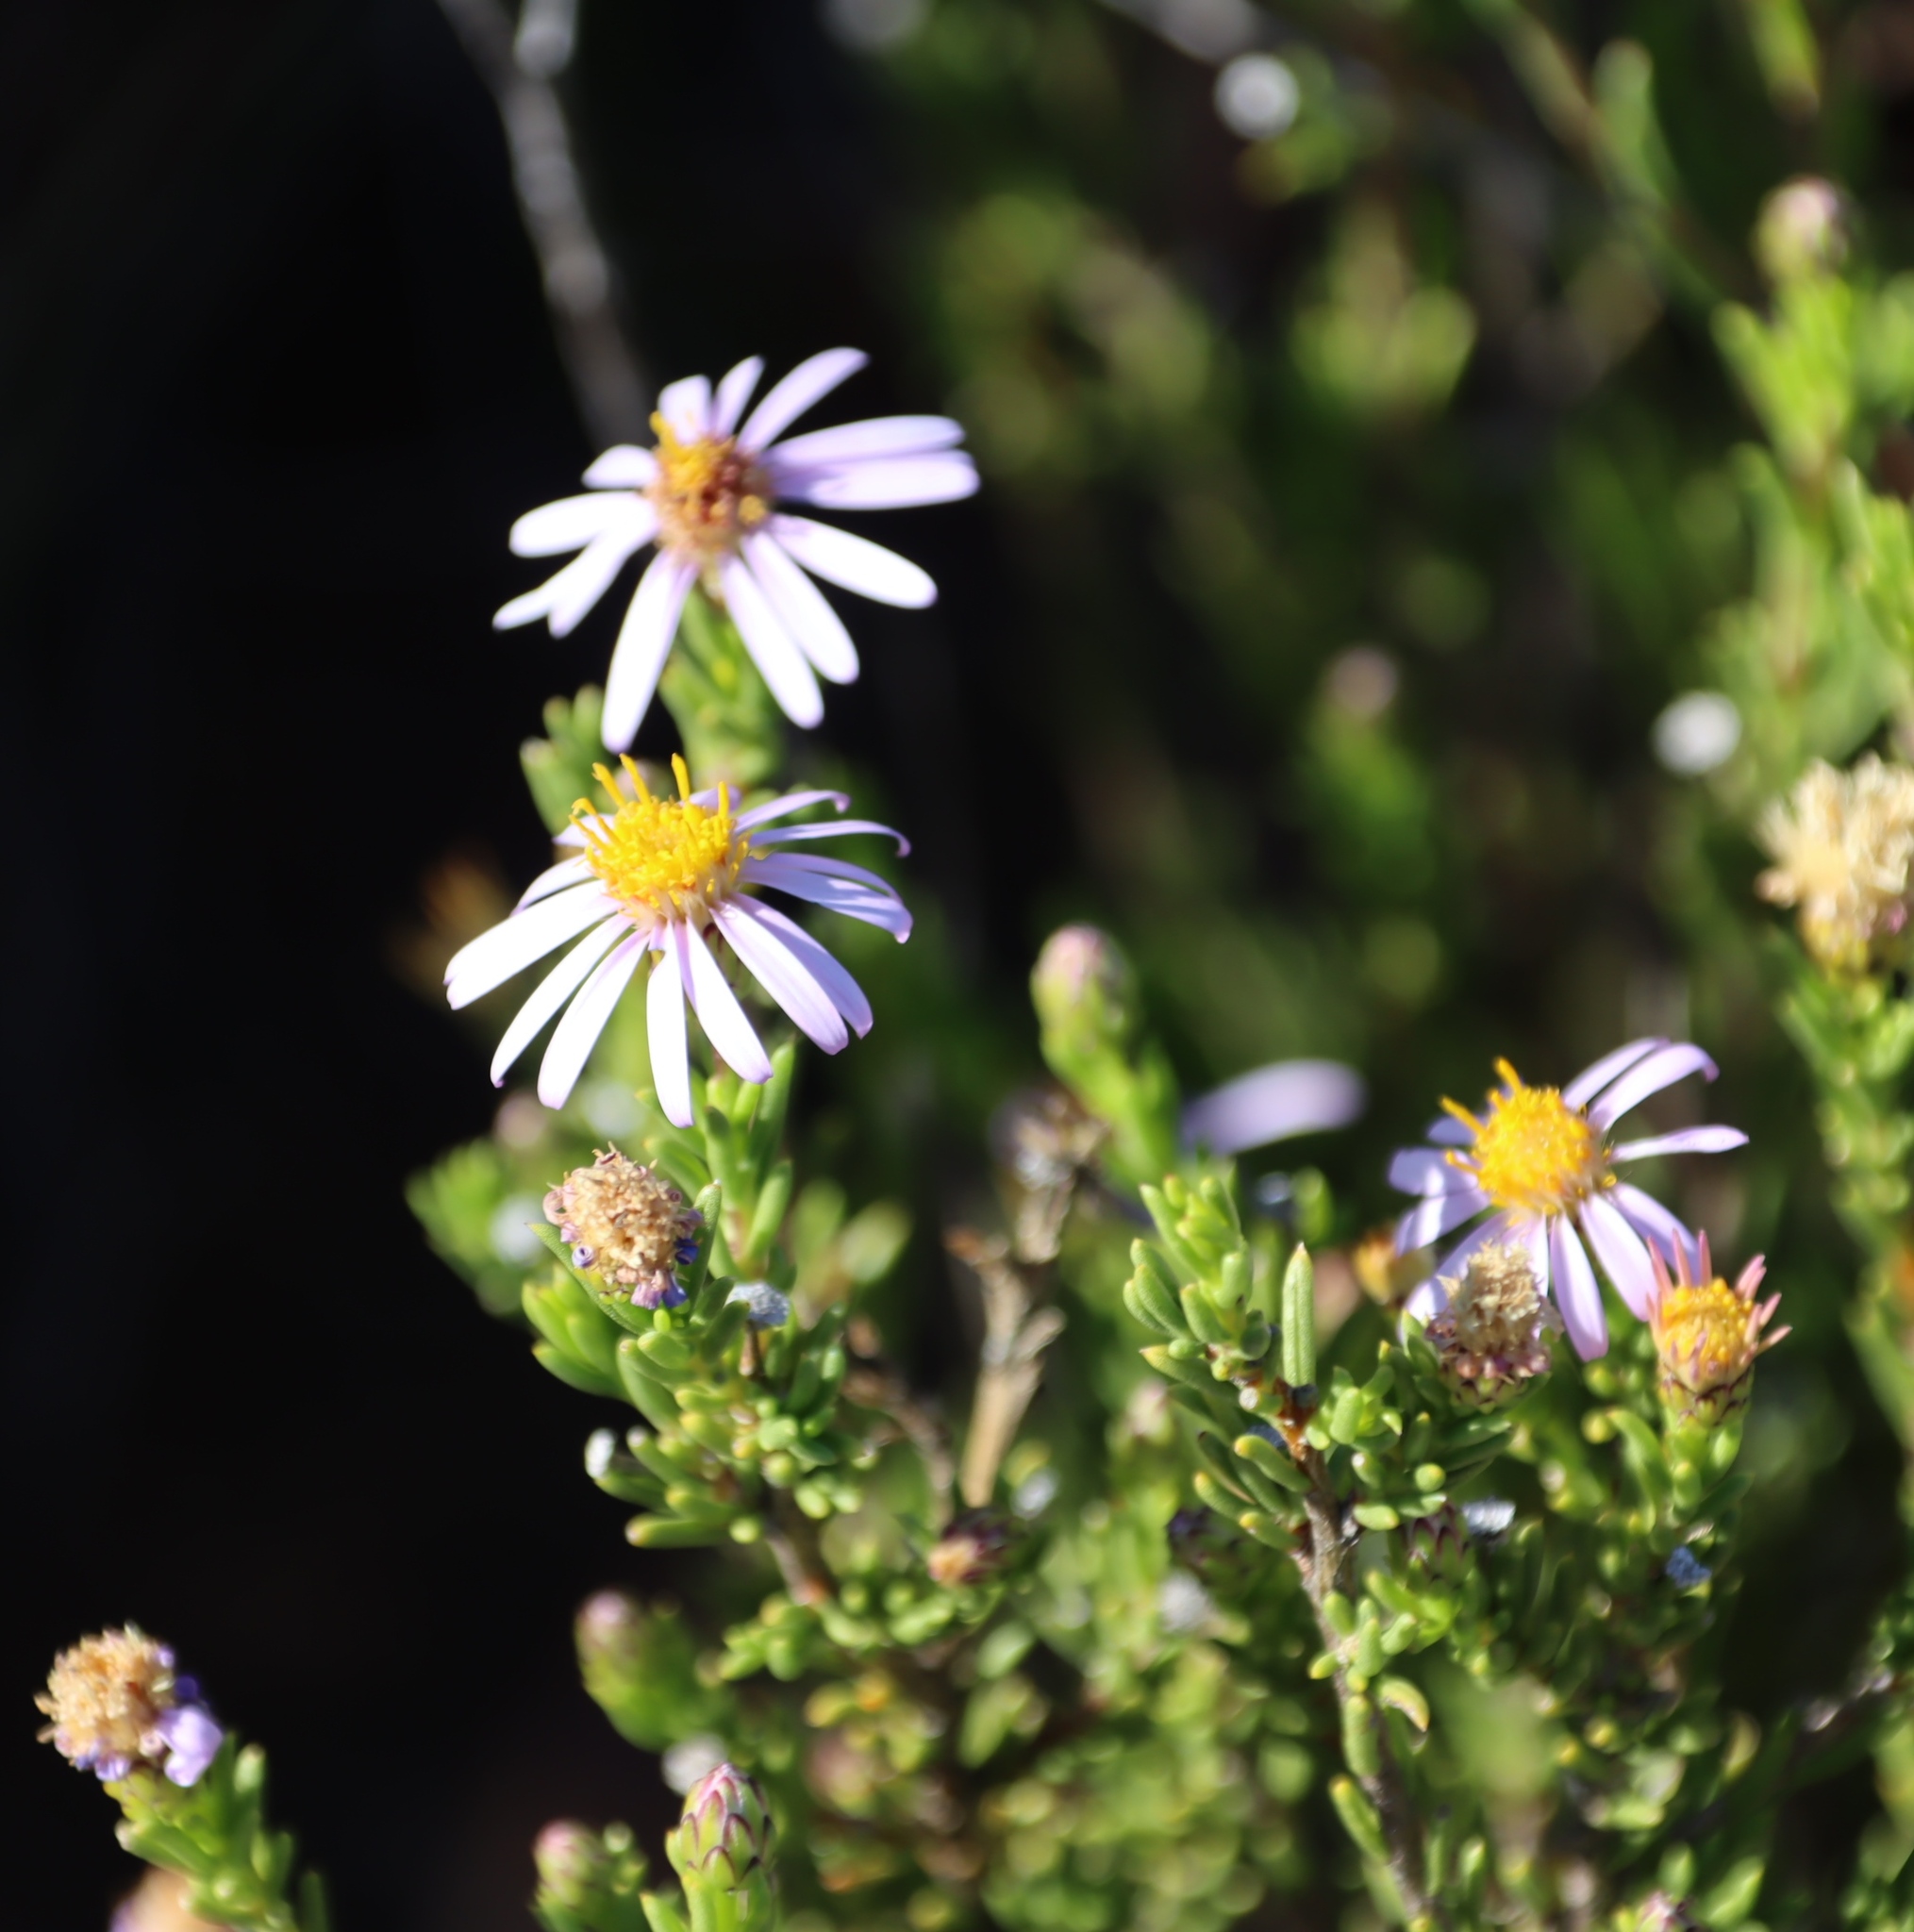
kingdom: Plantae
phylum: Tracheophyta
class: Magnoliopsida
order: Asterales
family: Asteraceae
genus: Felicia
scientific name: Felicia filifolia
